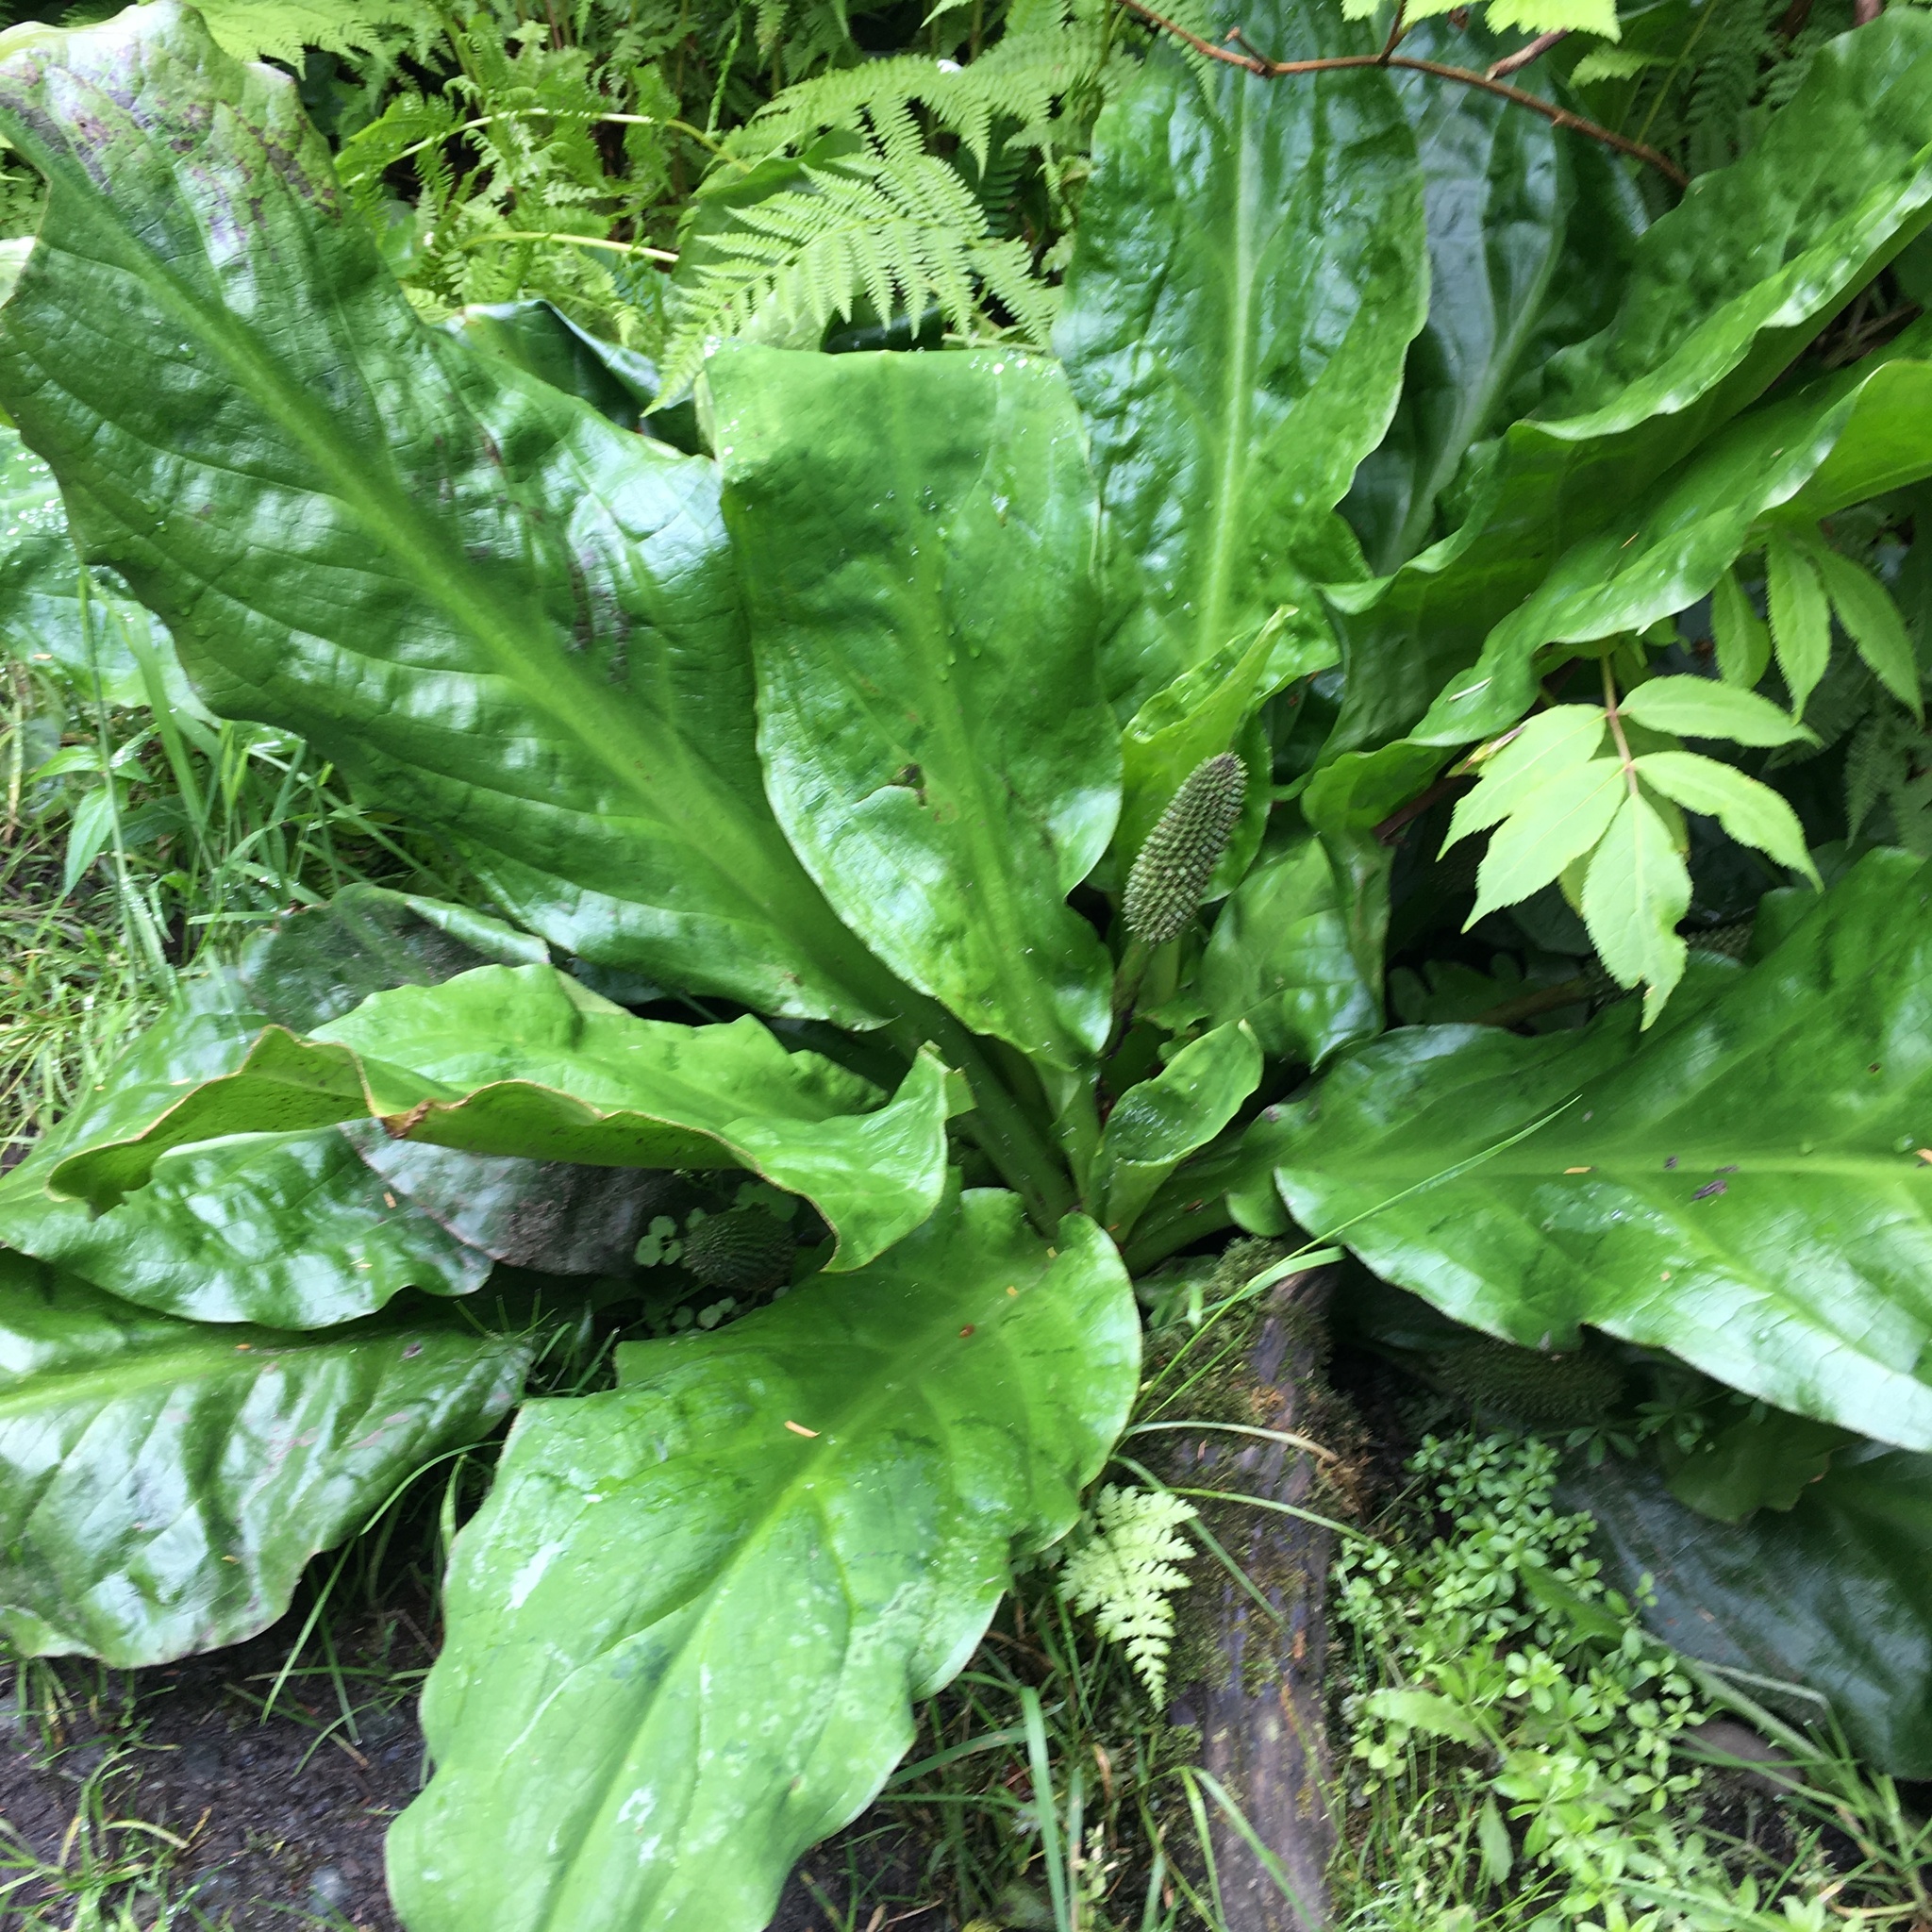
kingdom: Plantae
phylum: Tracheophyta
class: Liliopsida
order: Alismatales
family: Araceae
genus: Lysichiton
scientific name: Lysichiton americanus
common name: American skunk cabbage
